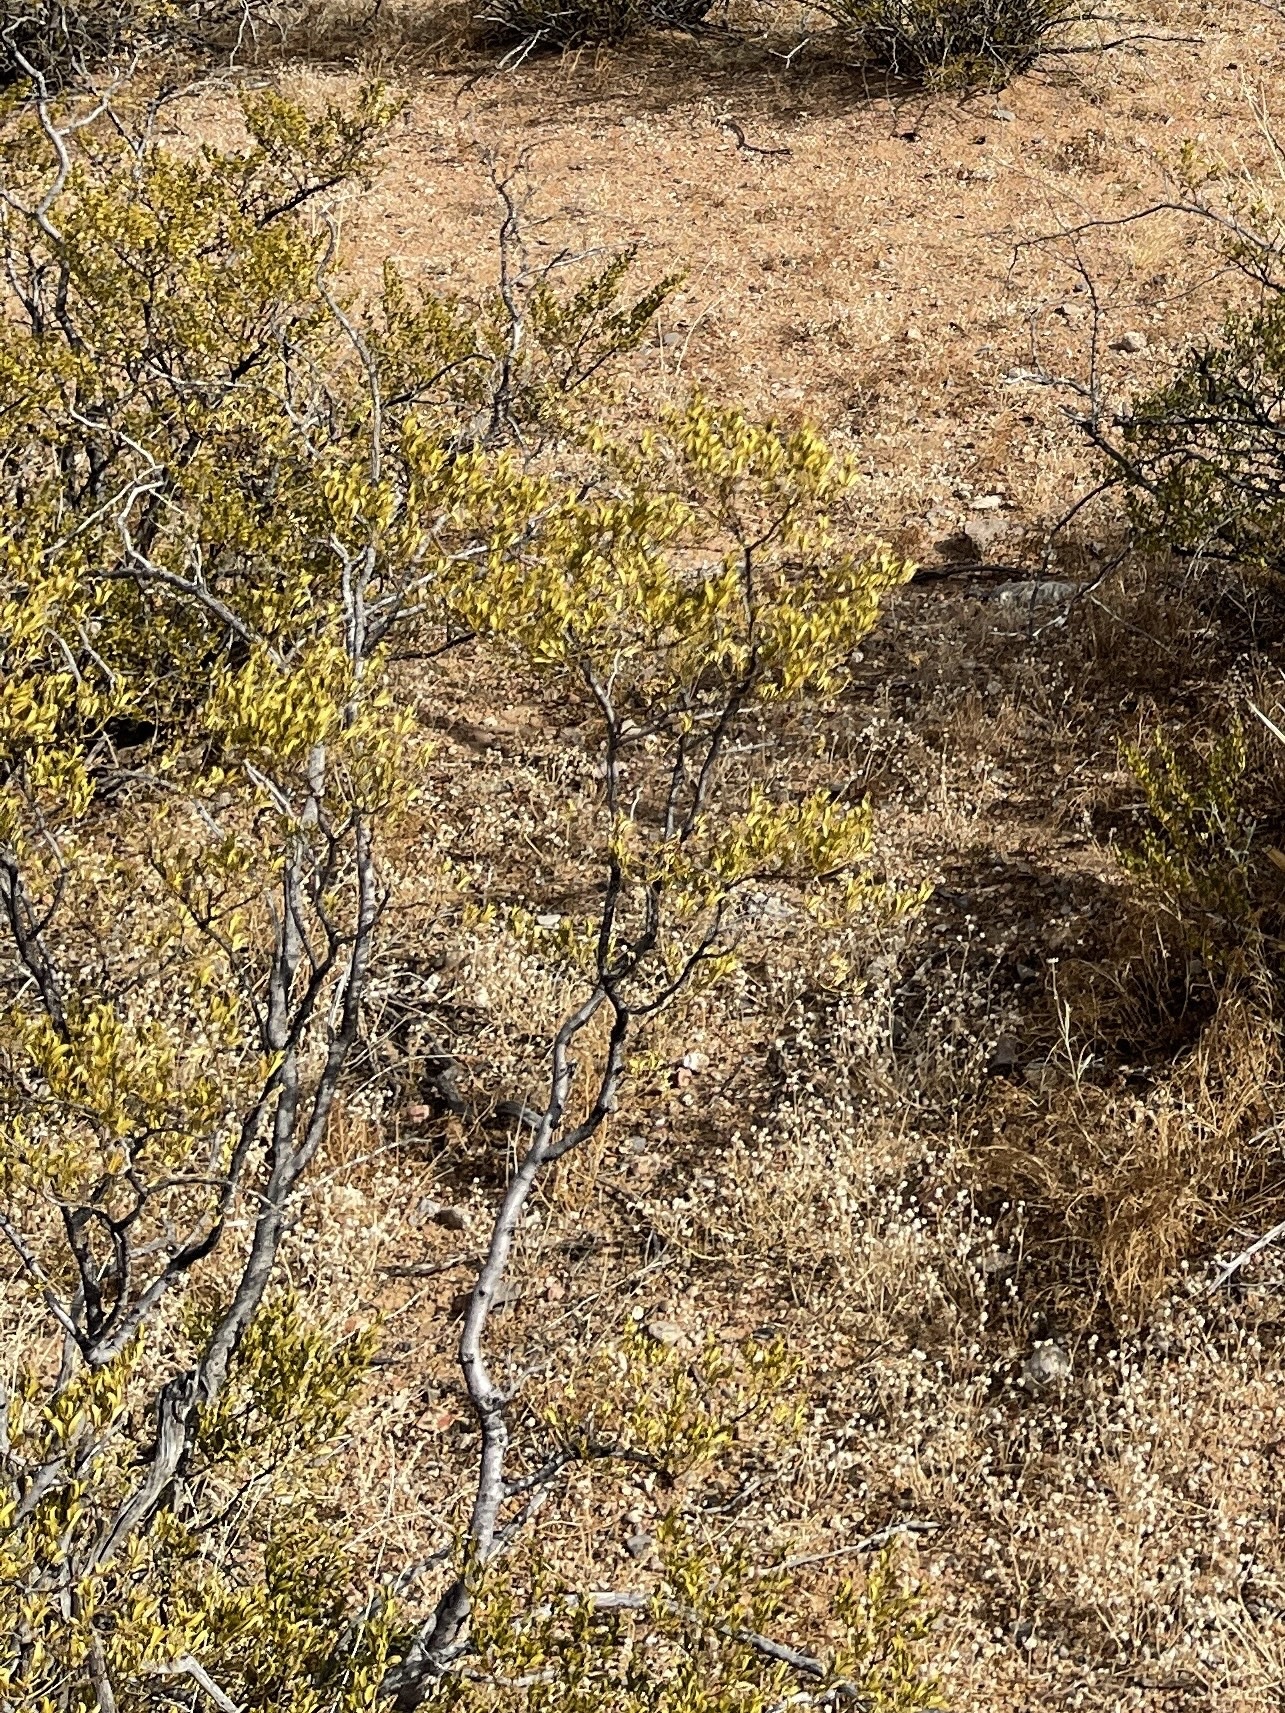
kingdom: Plantae
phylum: Tracheophyta
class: Magnoliopsida
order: Zygophyllales
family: Zygophyllaceae
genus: Larrea
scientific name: Larrea tridentata
